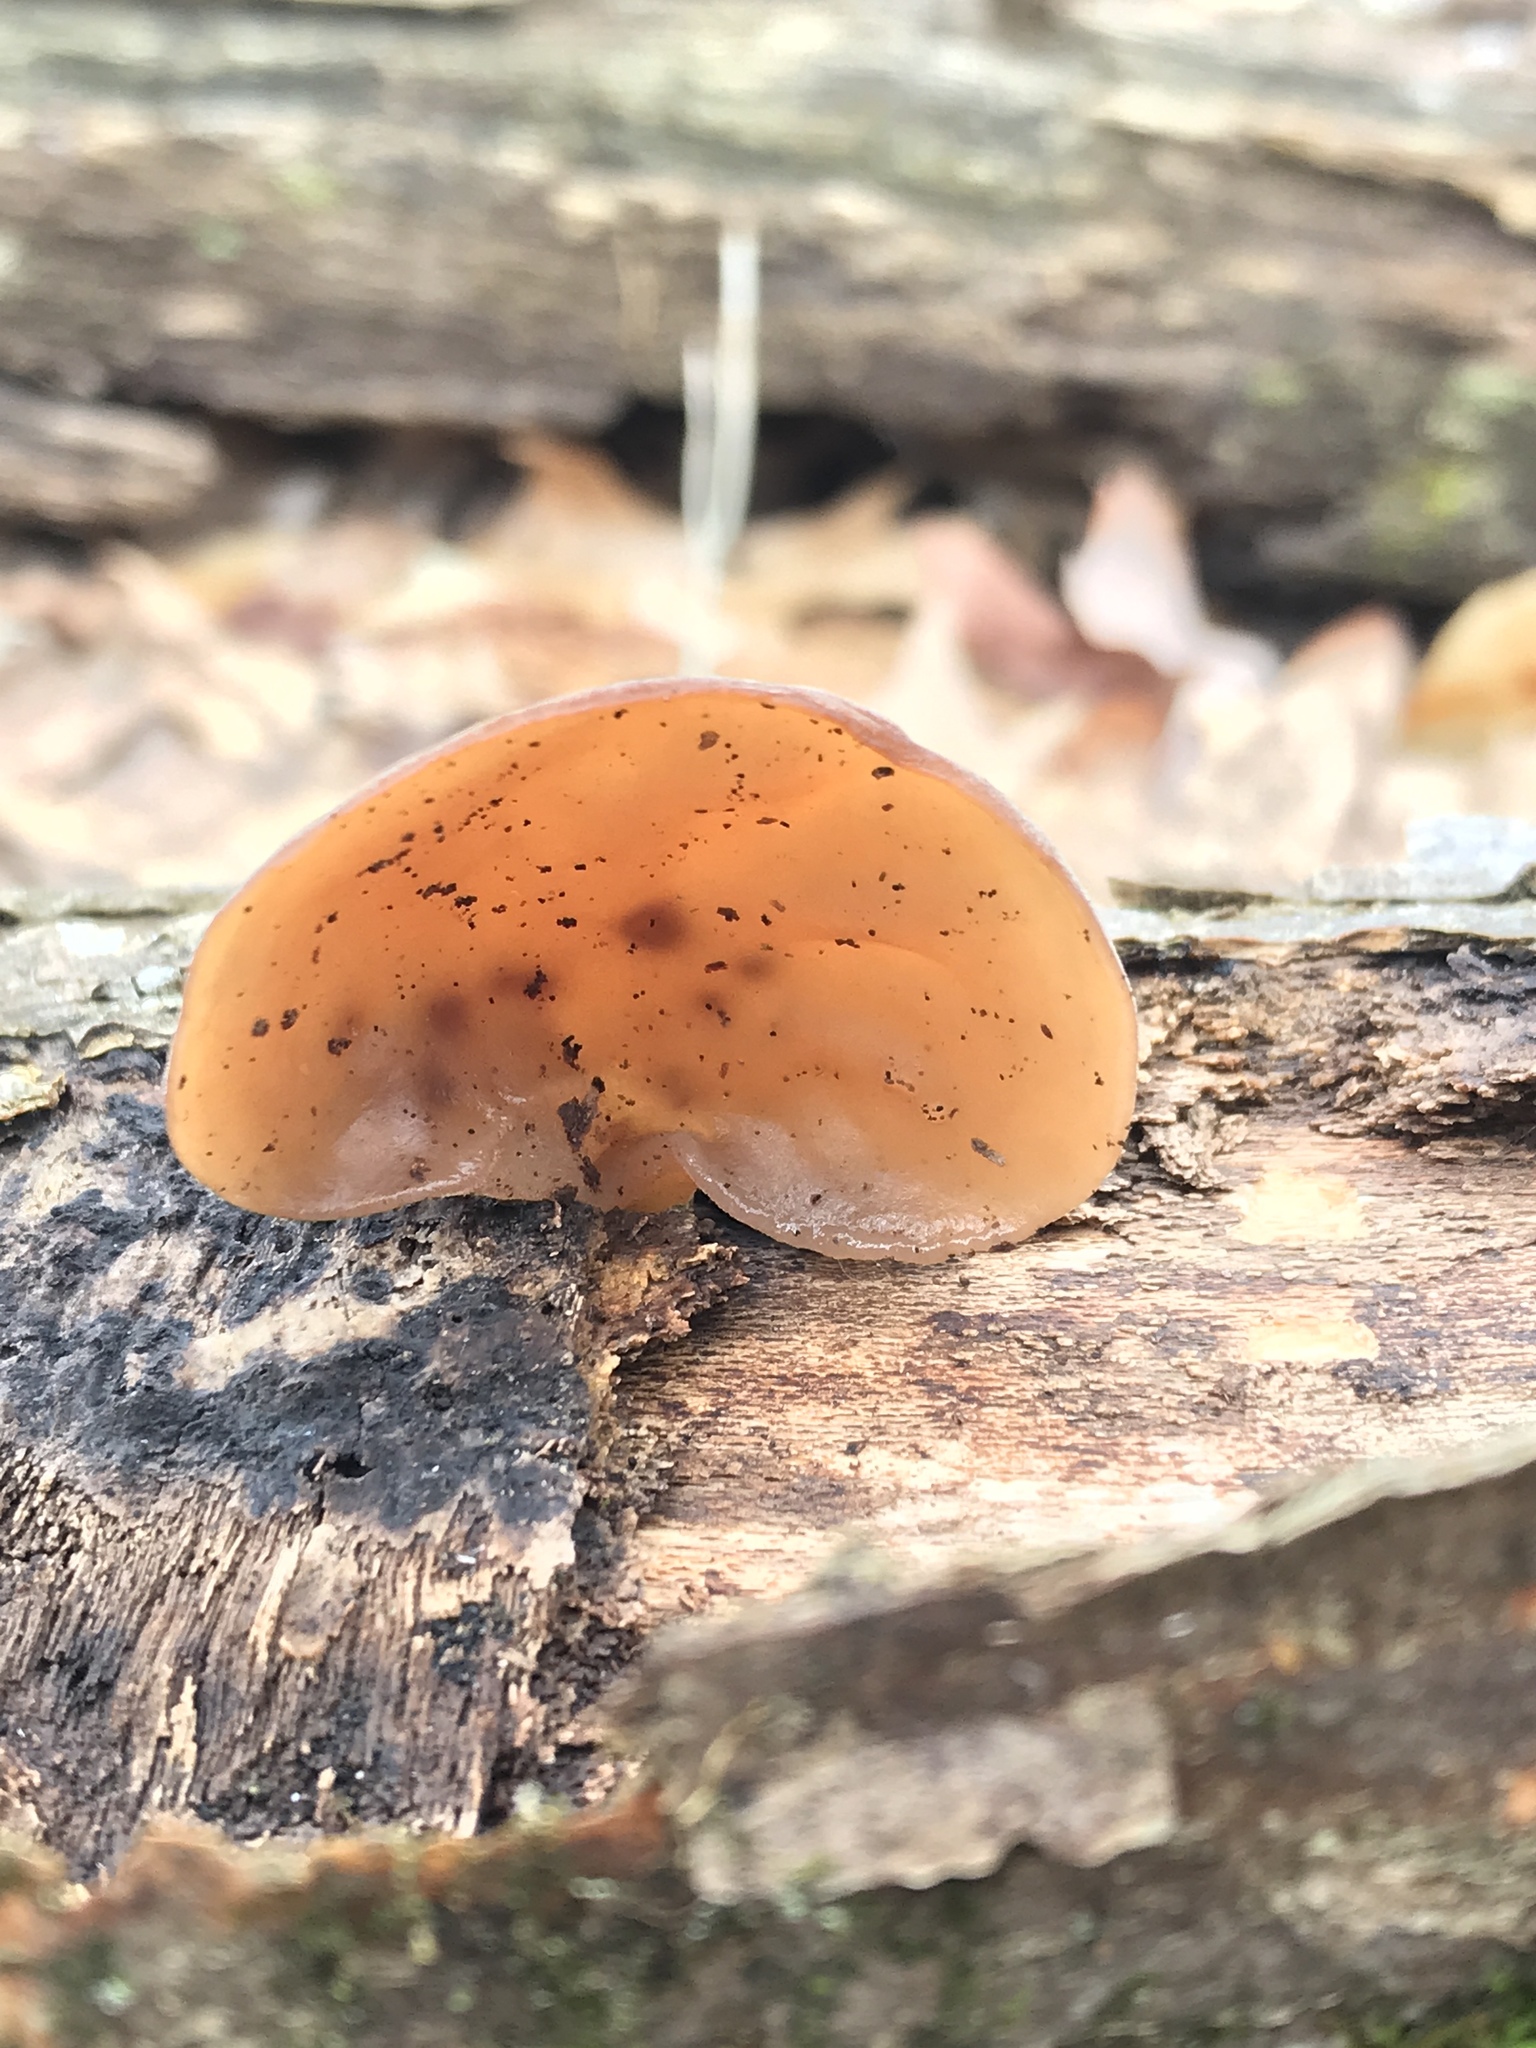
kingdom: Fungi
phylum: Basidiomycota
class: Agaricomycetes
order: Auriculariales
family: Auriculariaceae
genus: Auricularia
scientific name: Auricularia angiospermarum
